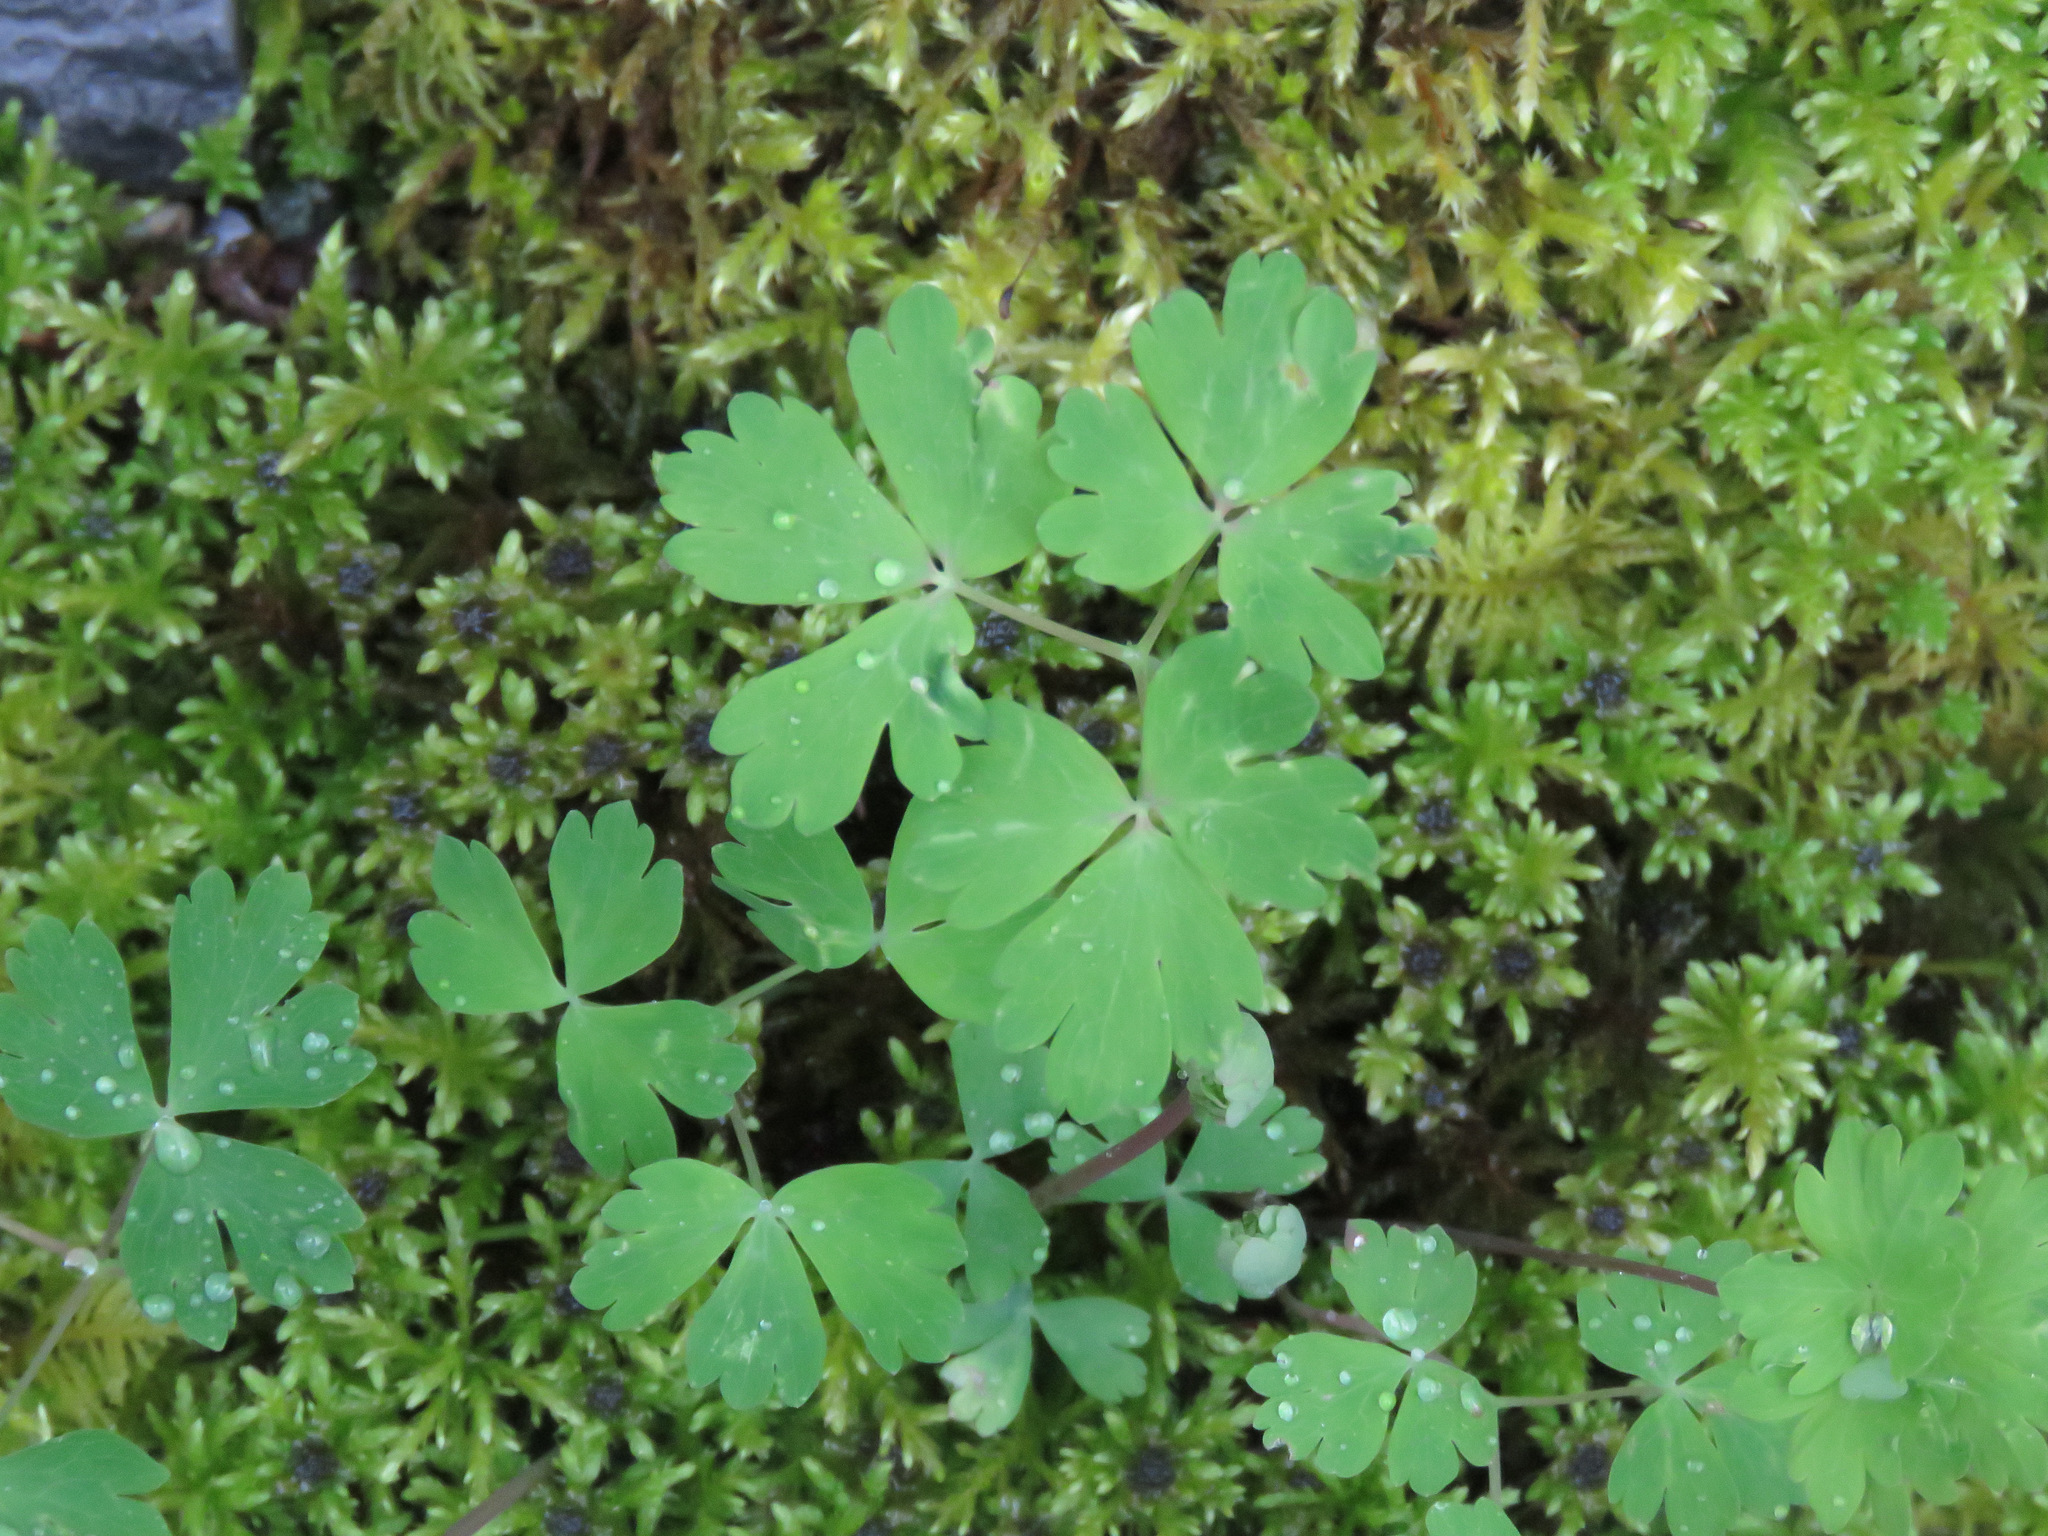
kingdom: Plantae
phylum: Tracheophyta
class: Magnoliopsida
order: Ranunculales
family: Ranunculaceae
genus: Aquilegia
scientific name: Aquilegia formosa
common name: Sitka columbine
